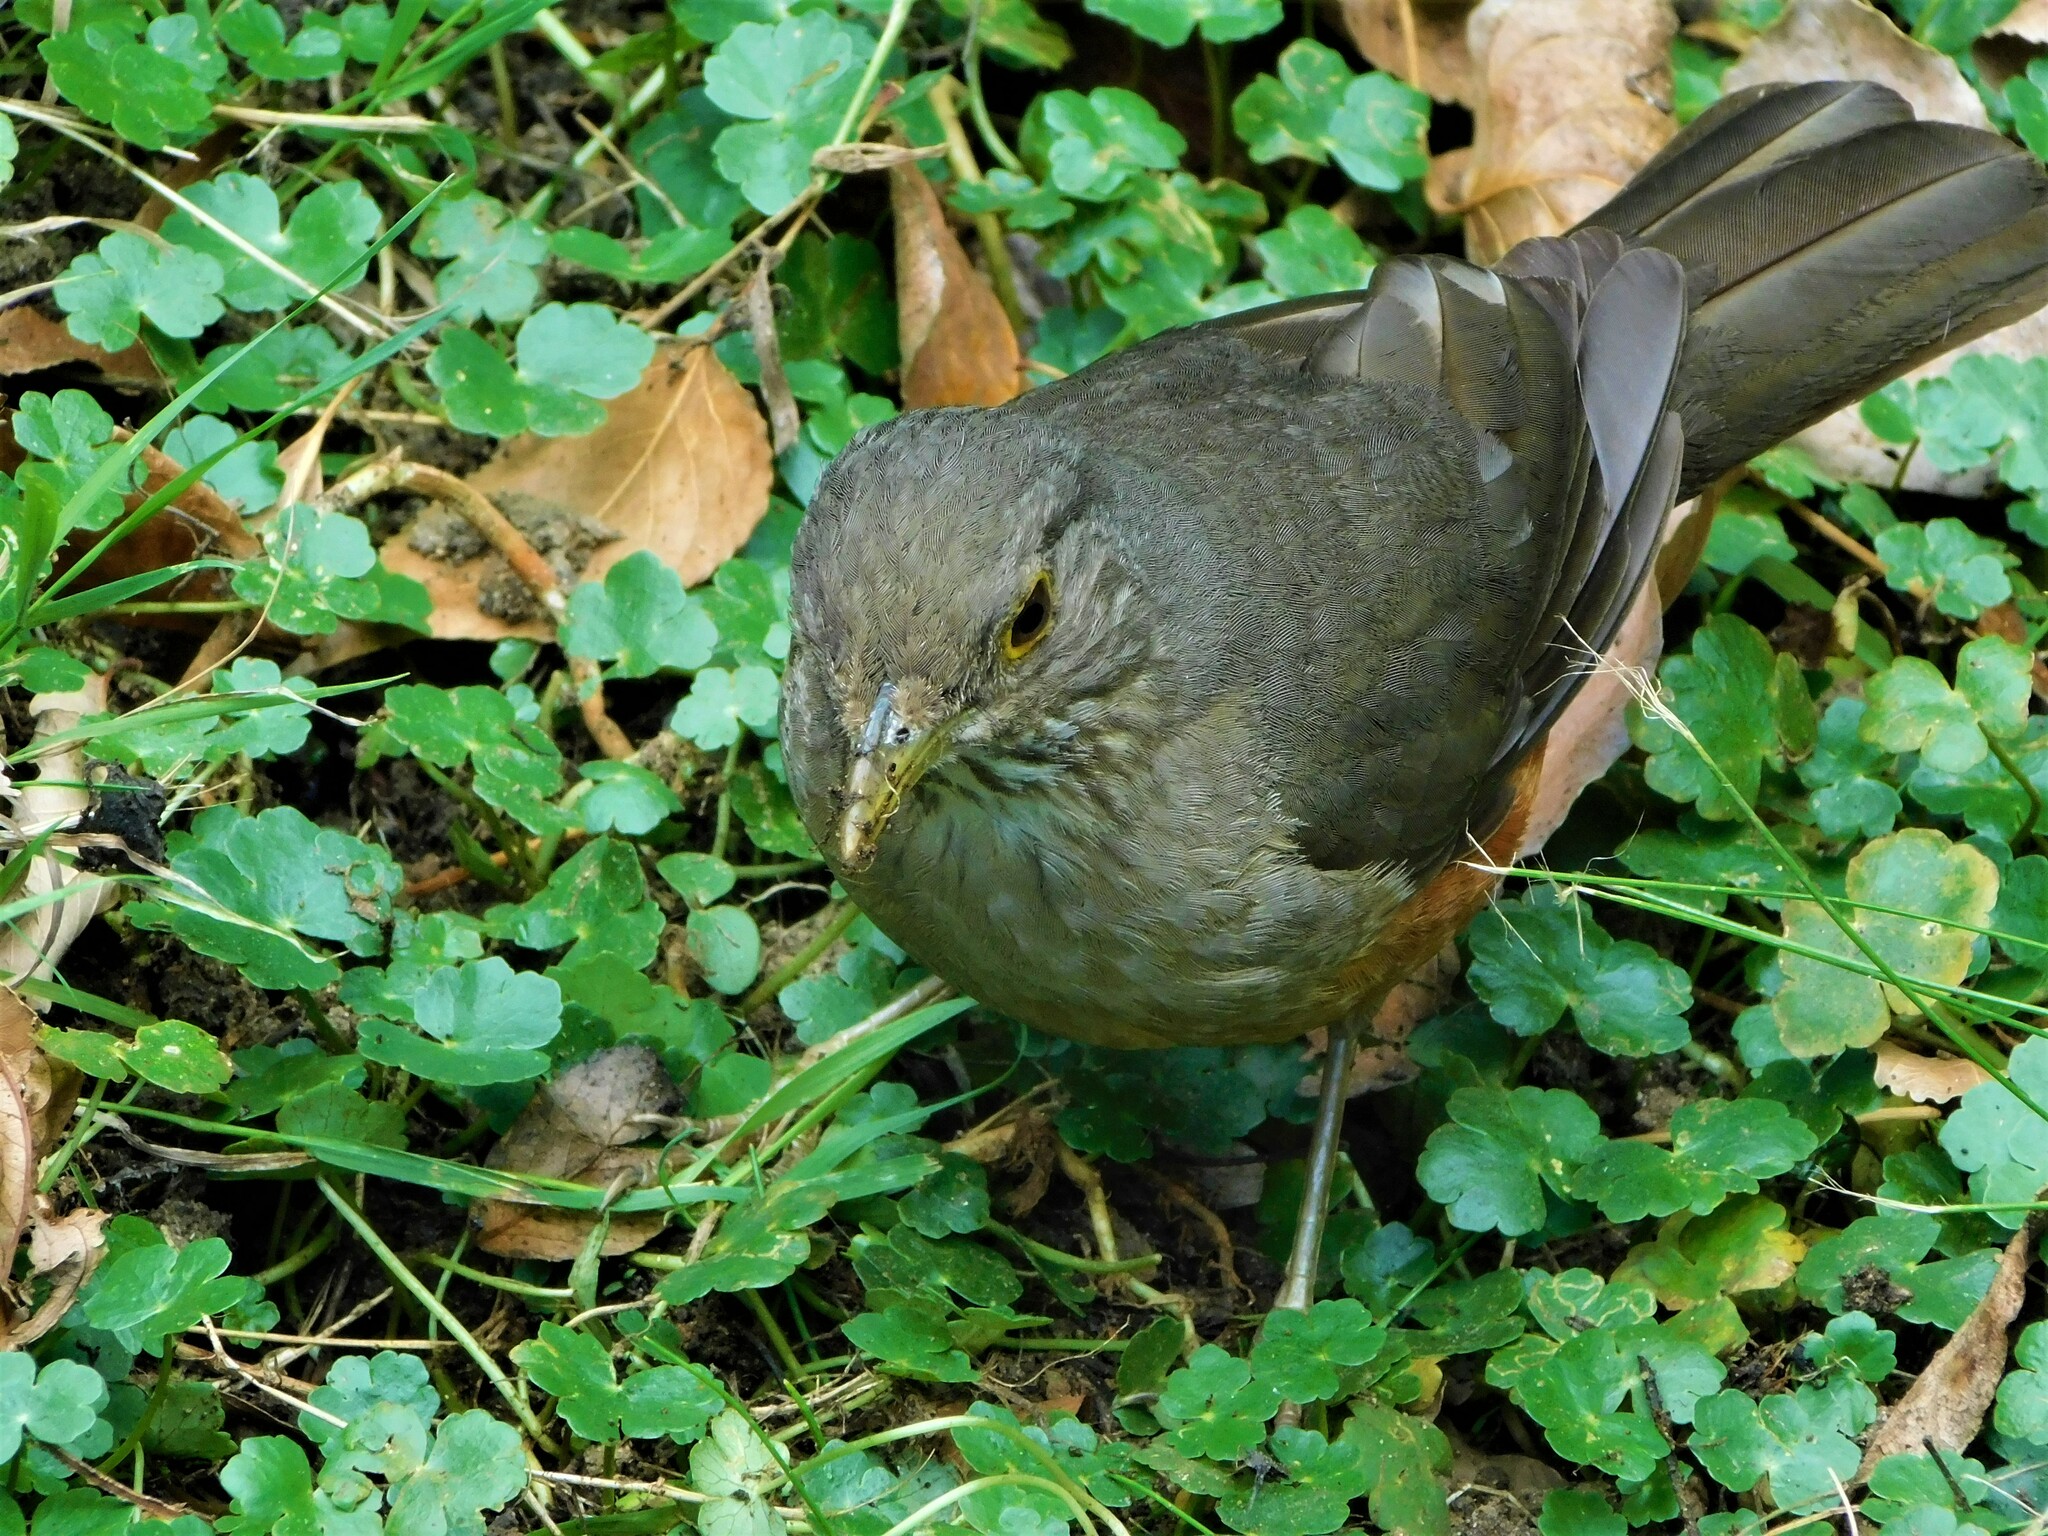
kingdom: Animalia
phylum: Chordata
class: Aves
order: Passeriformes
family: Turdidae
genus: Turdus
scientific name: Turdus rufiventris
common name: Rufous-bellied thrush
